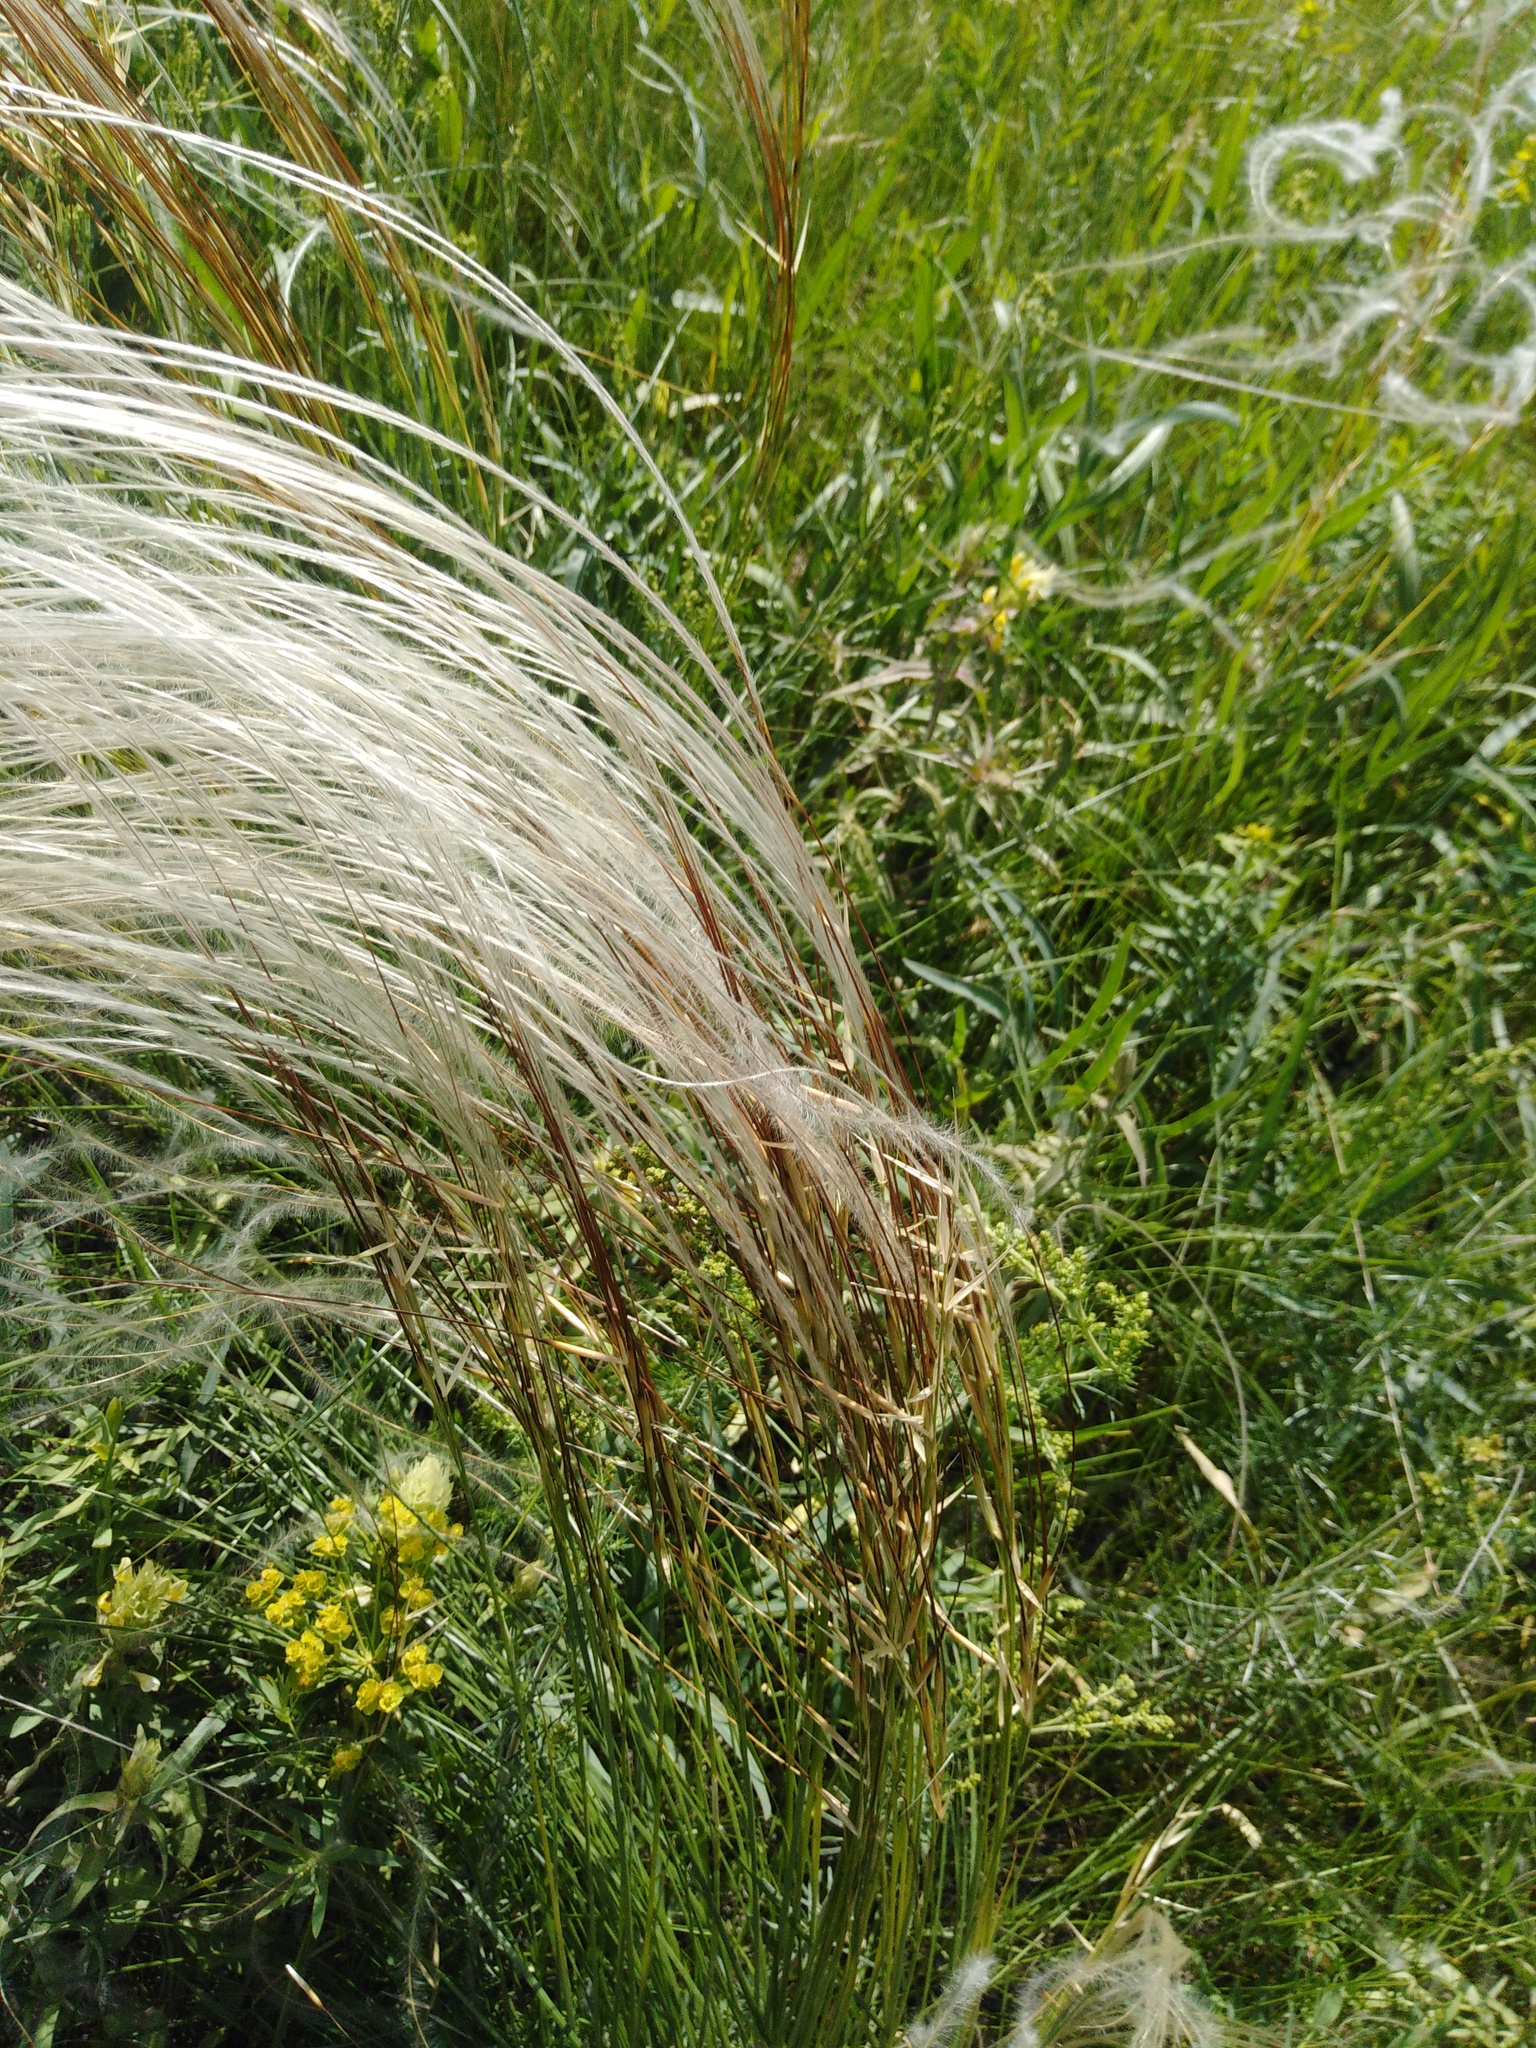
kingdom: Plantae
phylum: Tracheophyta
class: Liliopsida
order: Poales
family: Poaceae
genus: Stipa
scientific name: Stipa pennata
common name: European feather grass
